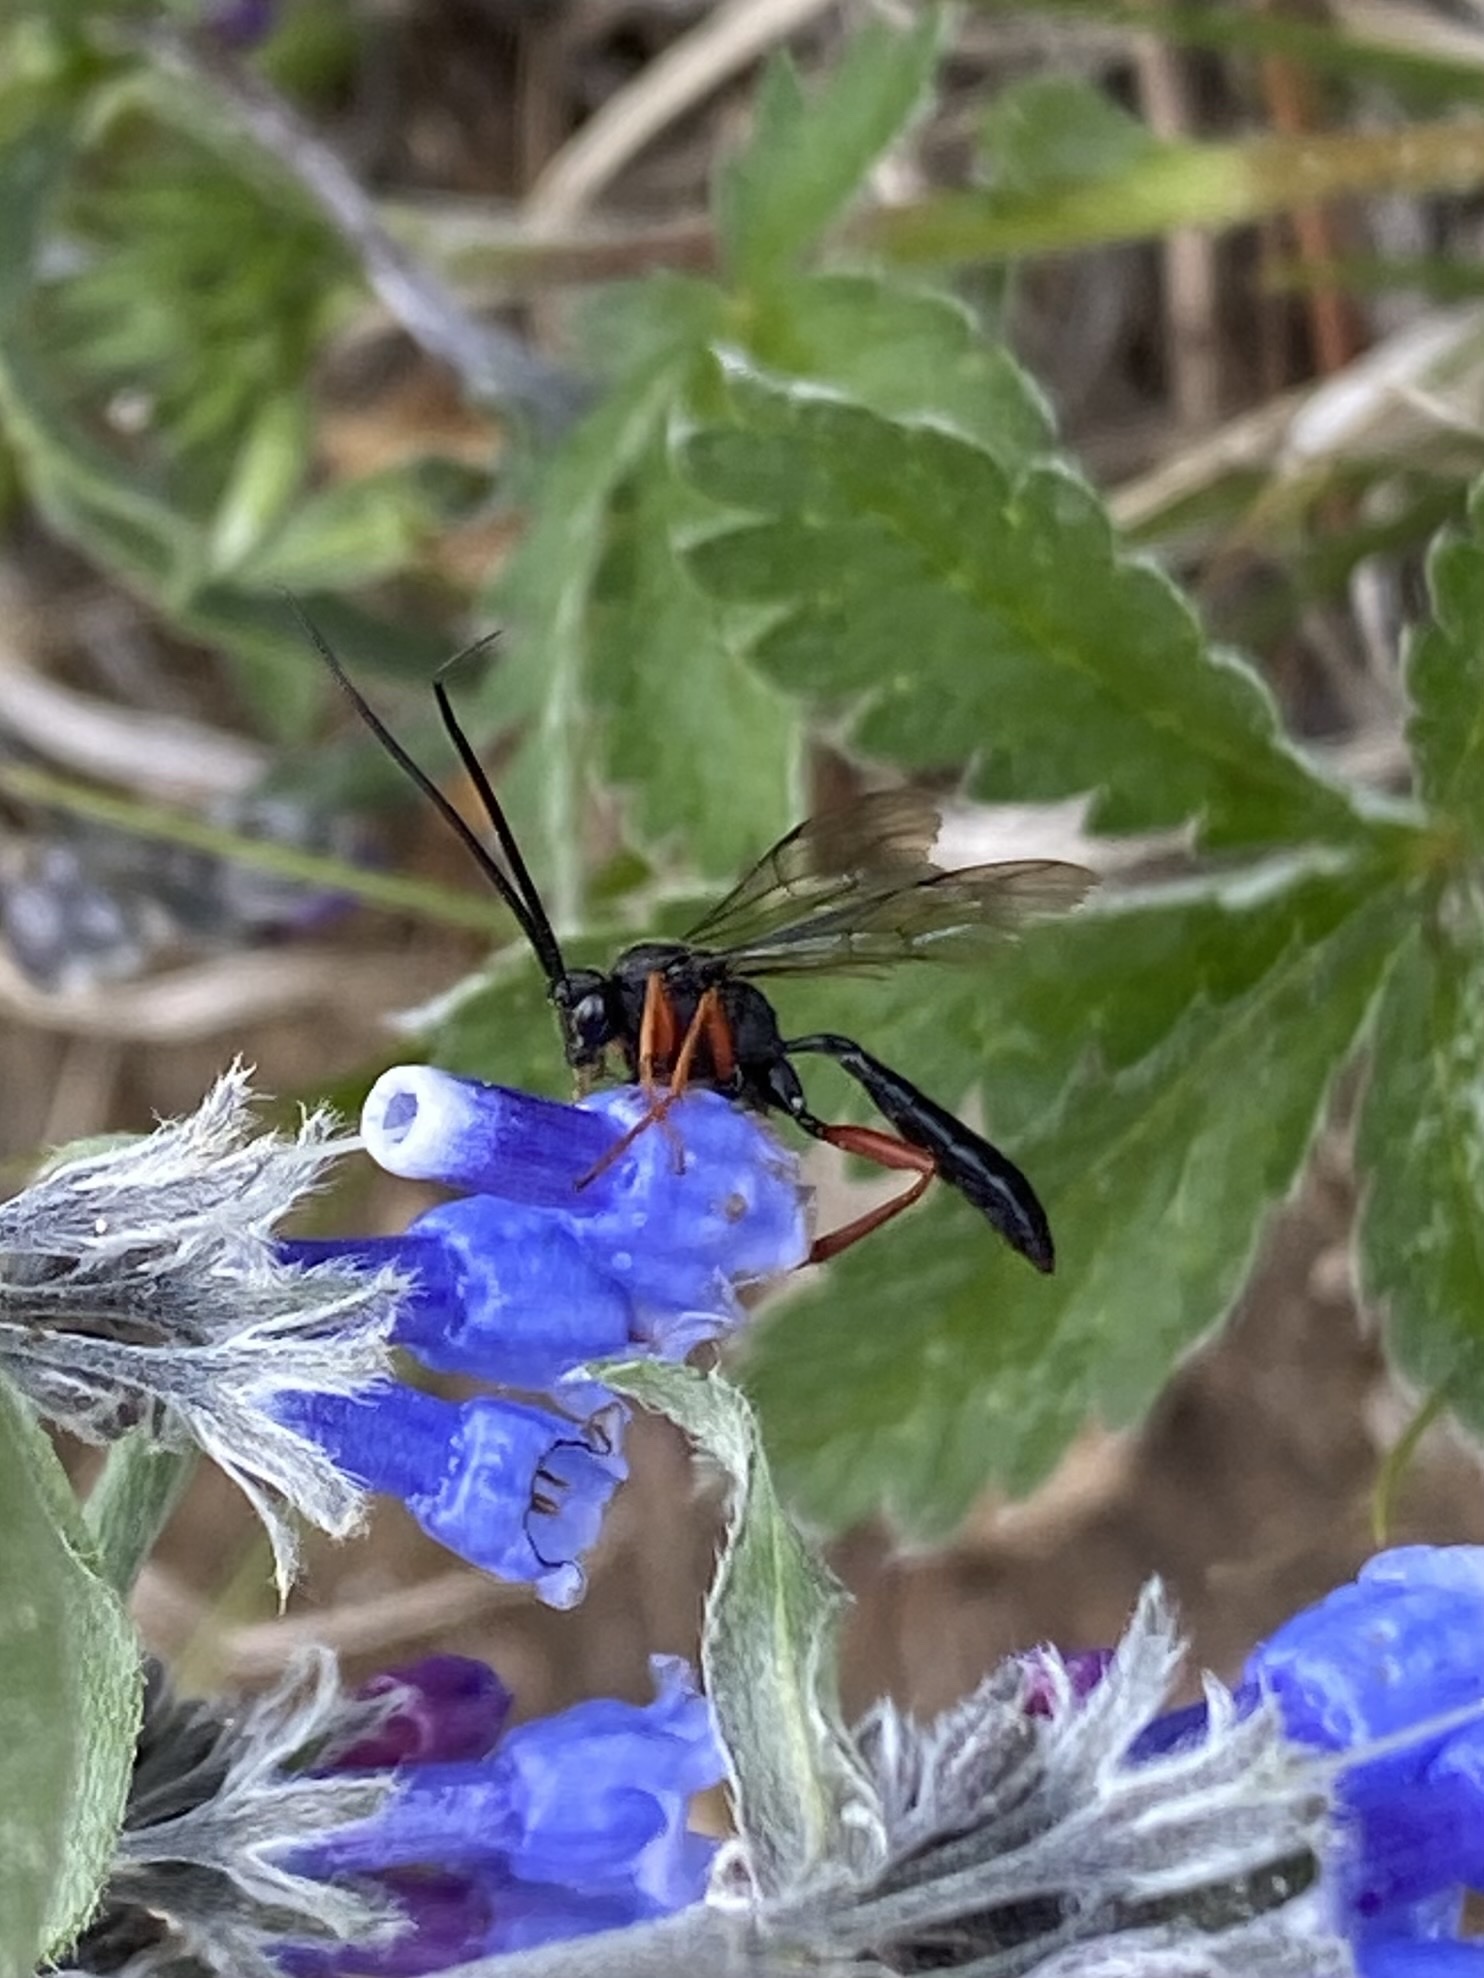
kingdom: Animalia
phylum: Arthropoda
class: Insecta
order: Hymenoptera
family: Ichneumonidae
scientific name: Ichneumonidae
